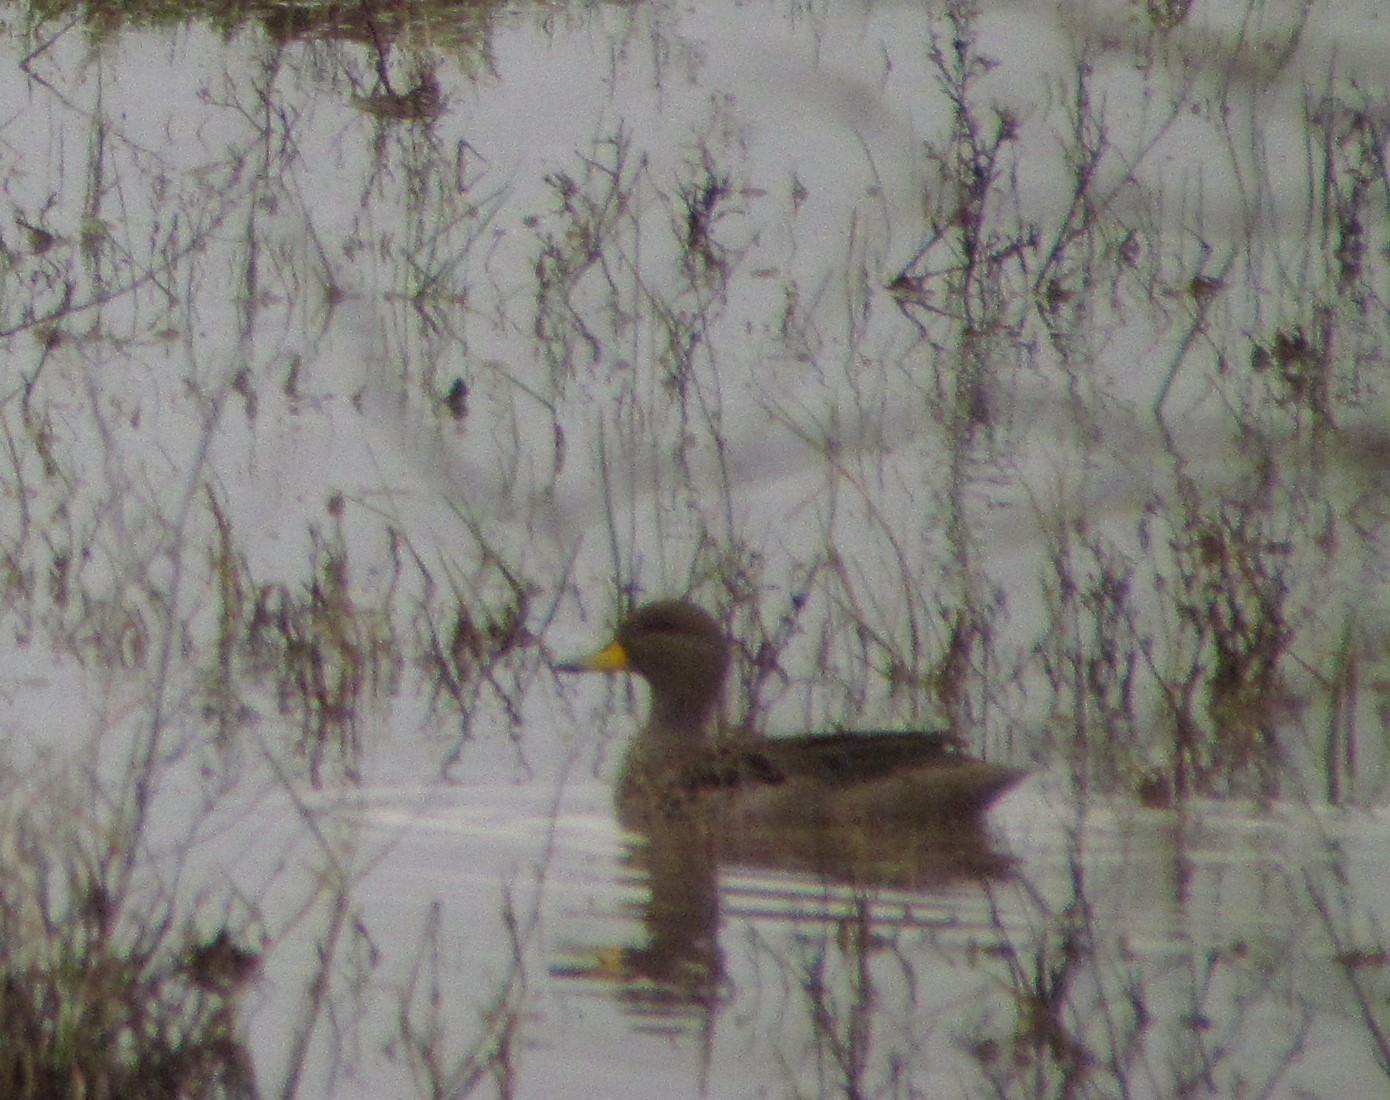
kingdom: Animalia
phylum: Chordata
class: Aves
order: Anseriformes
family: Anatidae
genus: Anas
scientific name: Anas flavirostris
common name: Yellow-billed teal
